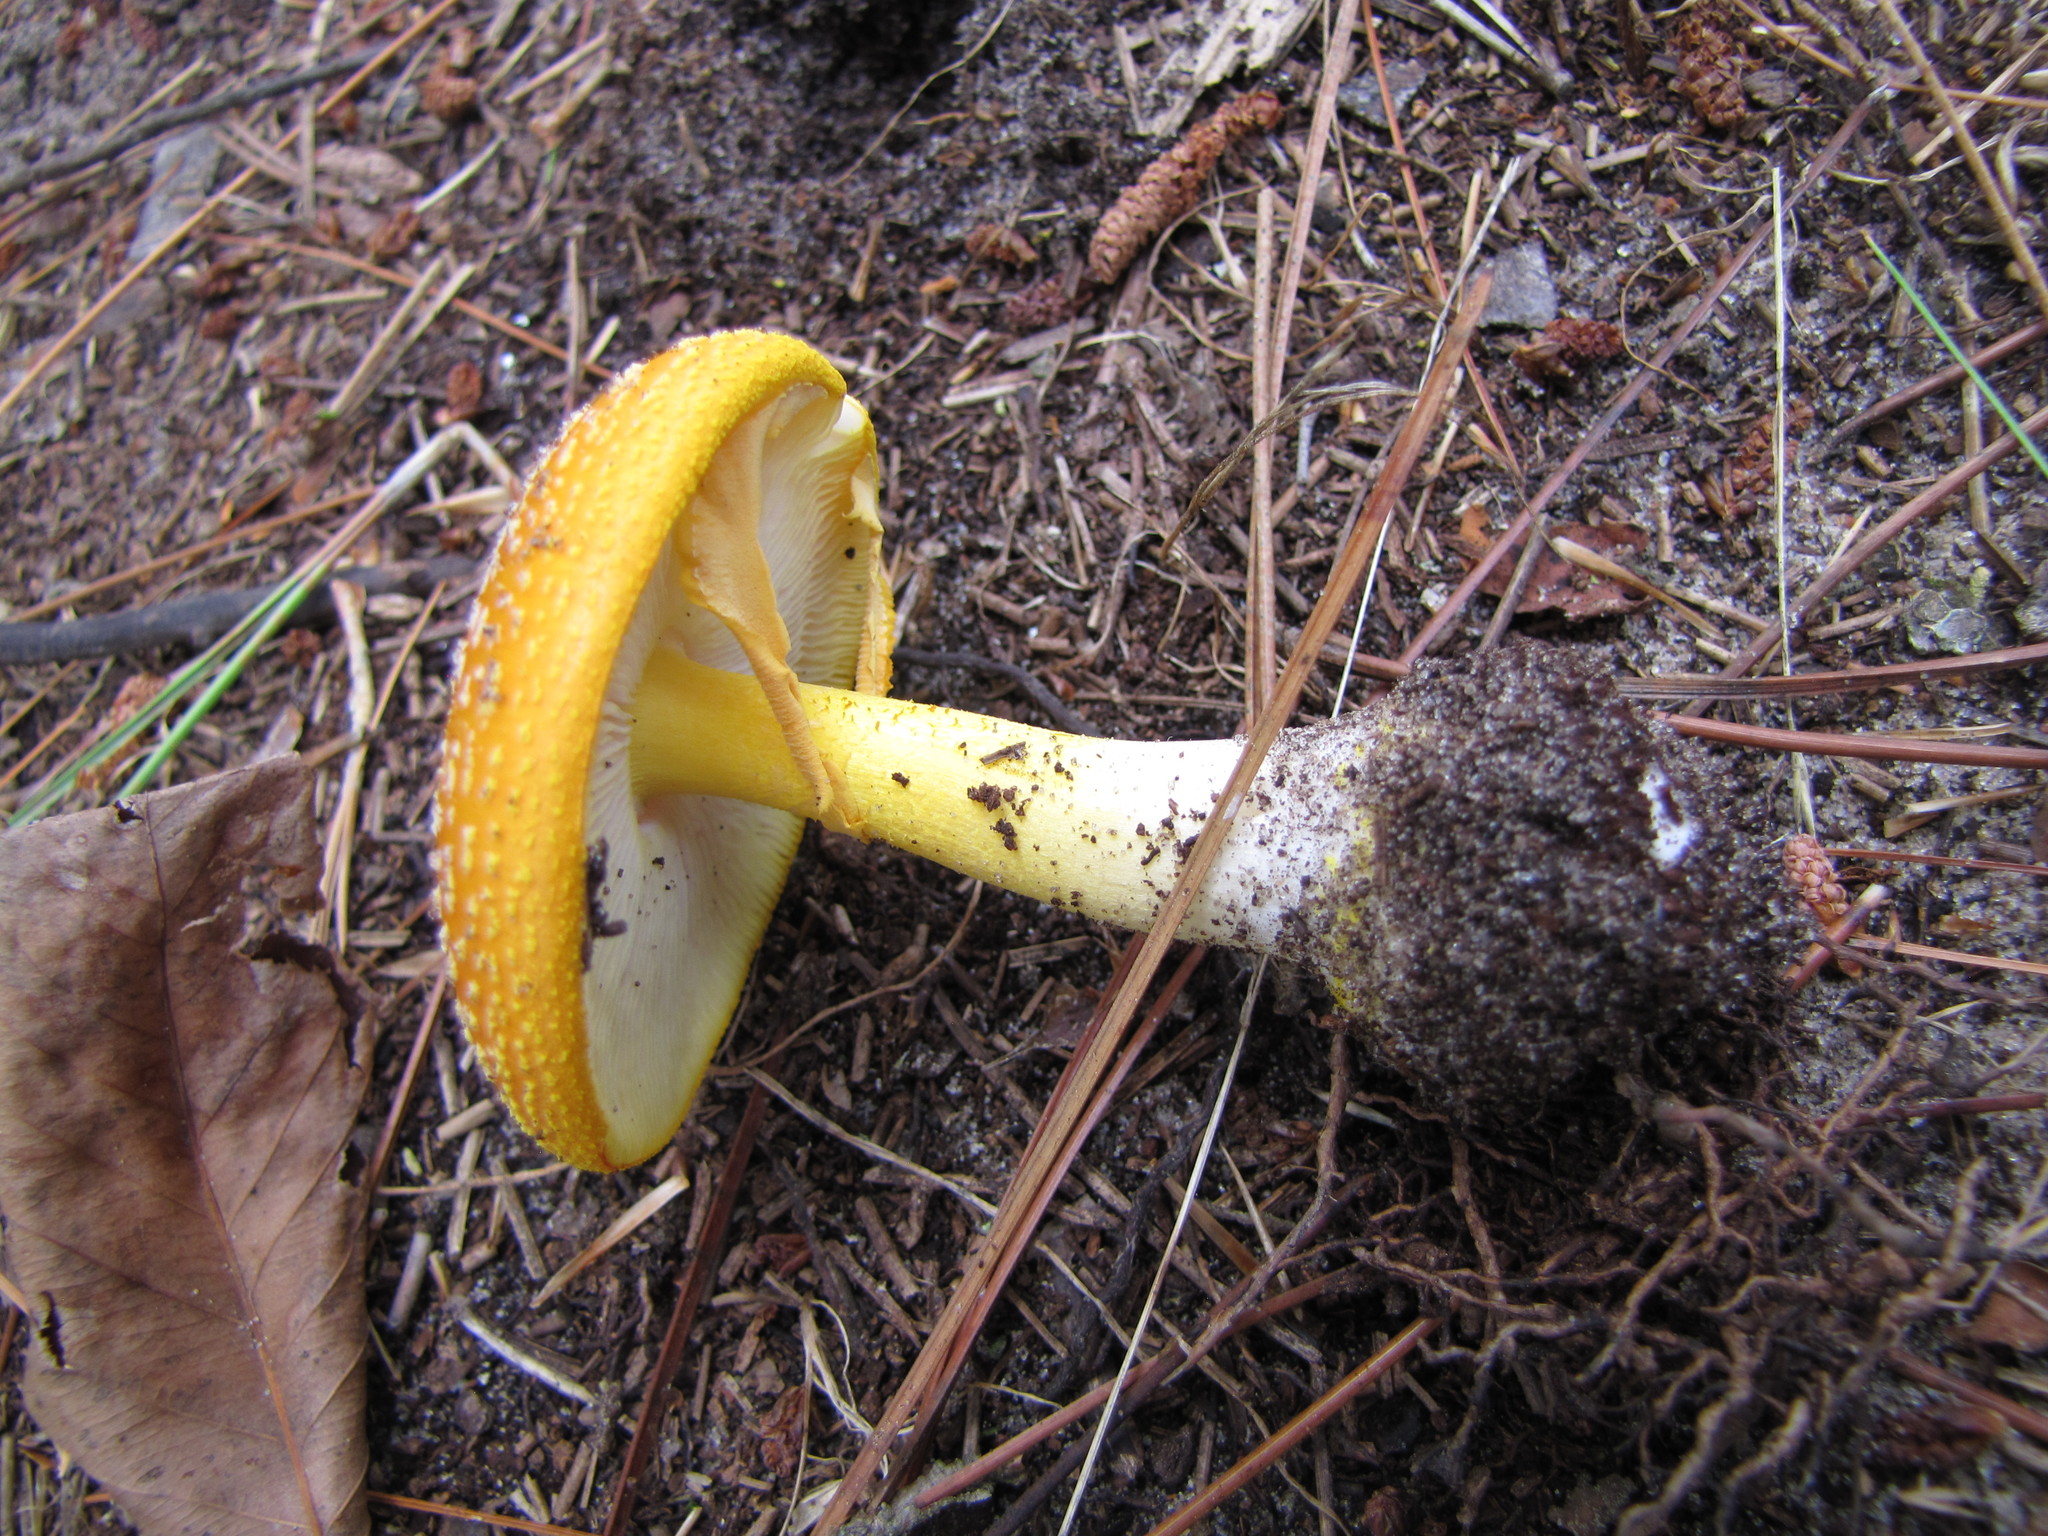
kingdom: Fungi
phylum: Basidiomycota
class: Agaricomycetes
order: Agaricales
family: Amanitaceae
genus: Amanita
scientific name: Amanita muscaria
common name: Fly agaric
